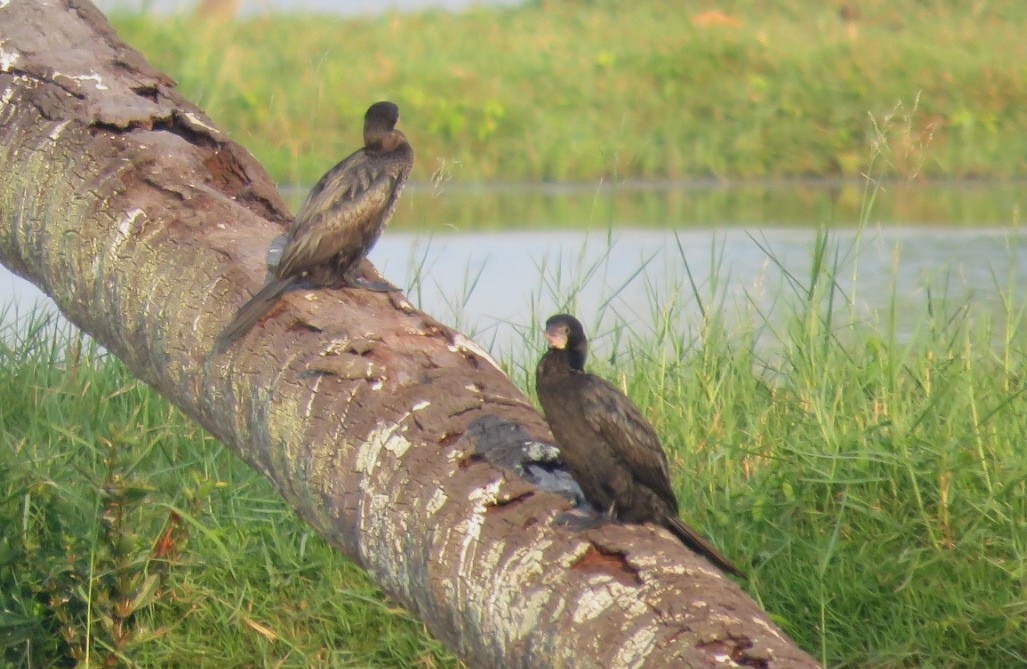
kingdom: Animalia
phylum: Chordata
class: Aves
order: Suliformes
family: Phalacrocoracidae
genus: Microcarbo
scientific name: Microcarbo niger
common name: Little cormorant
